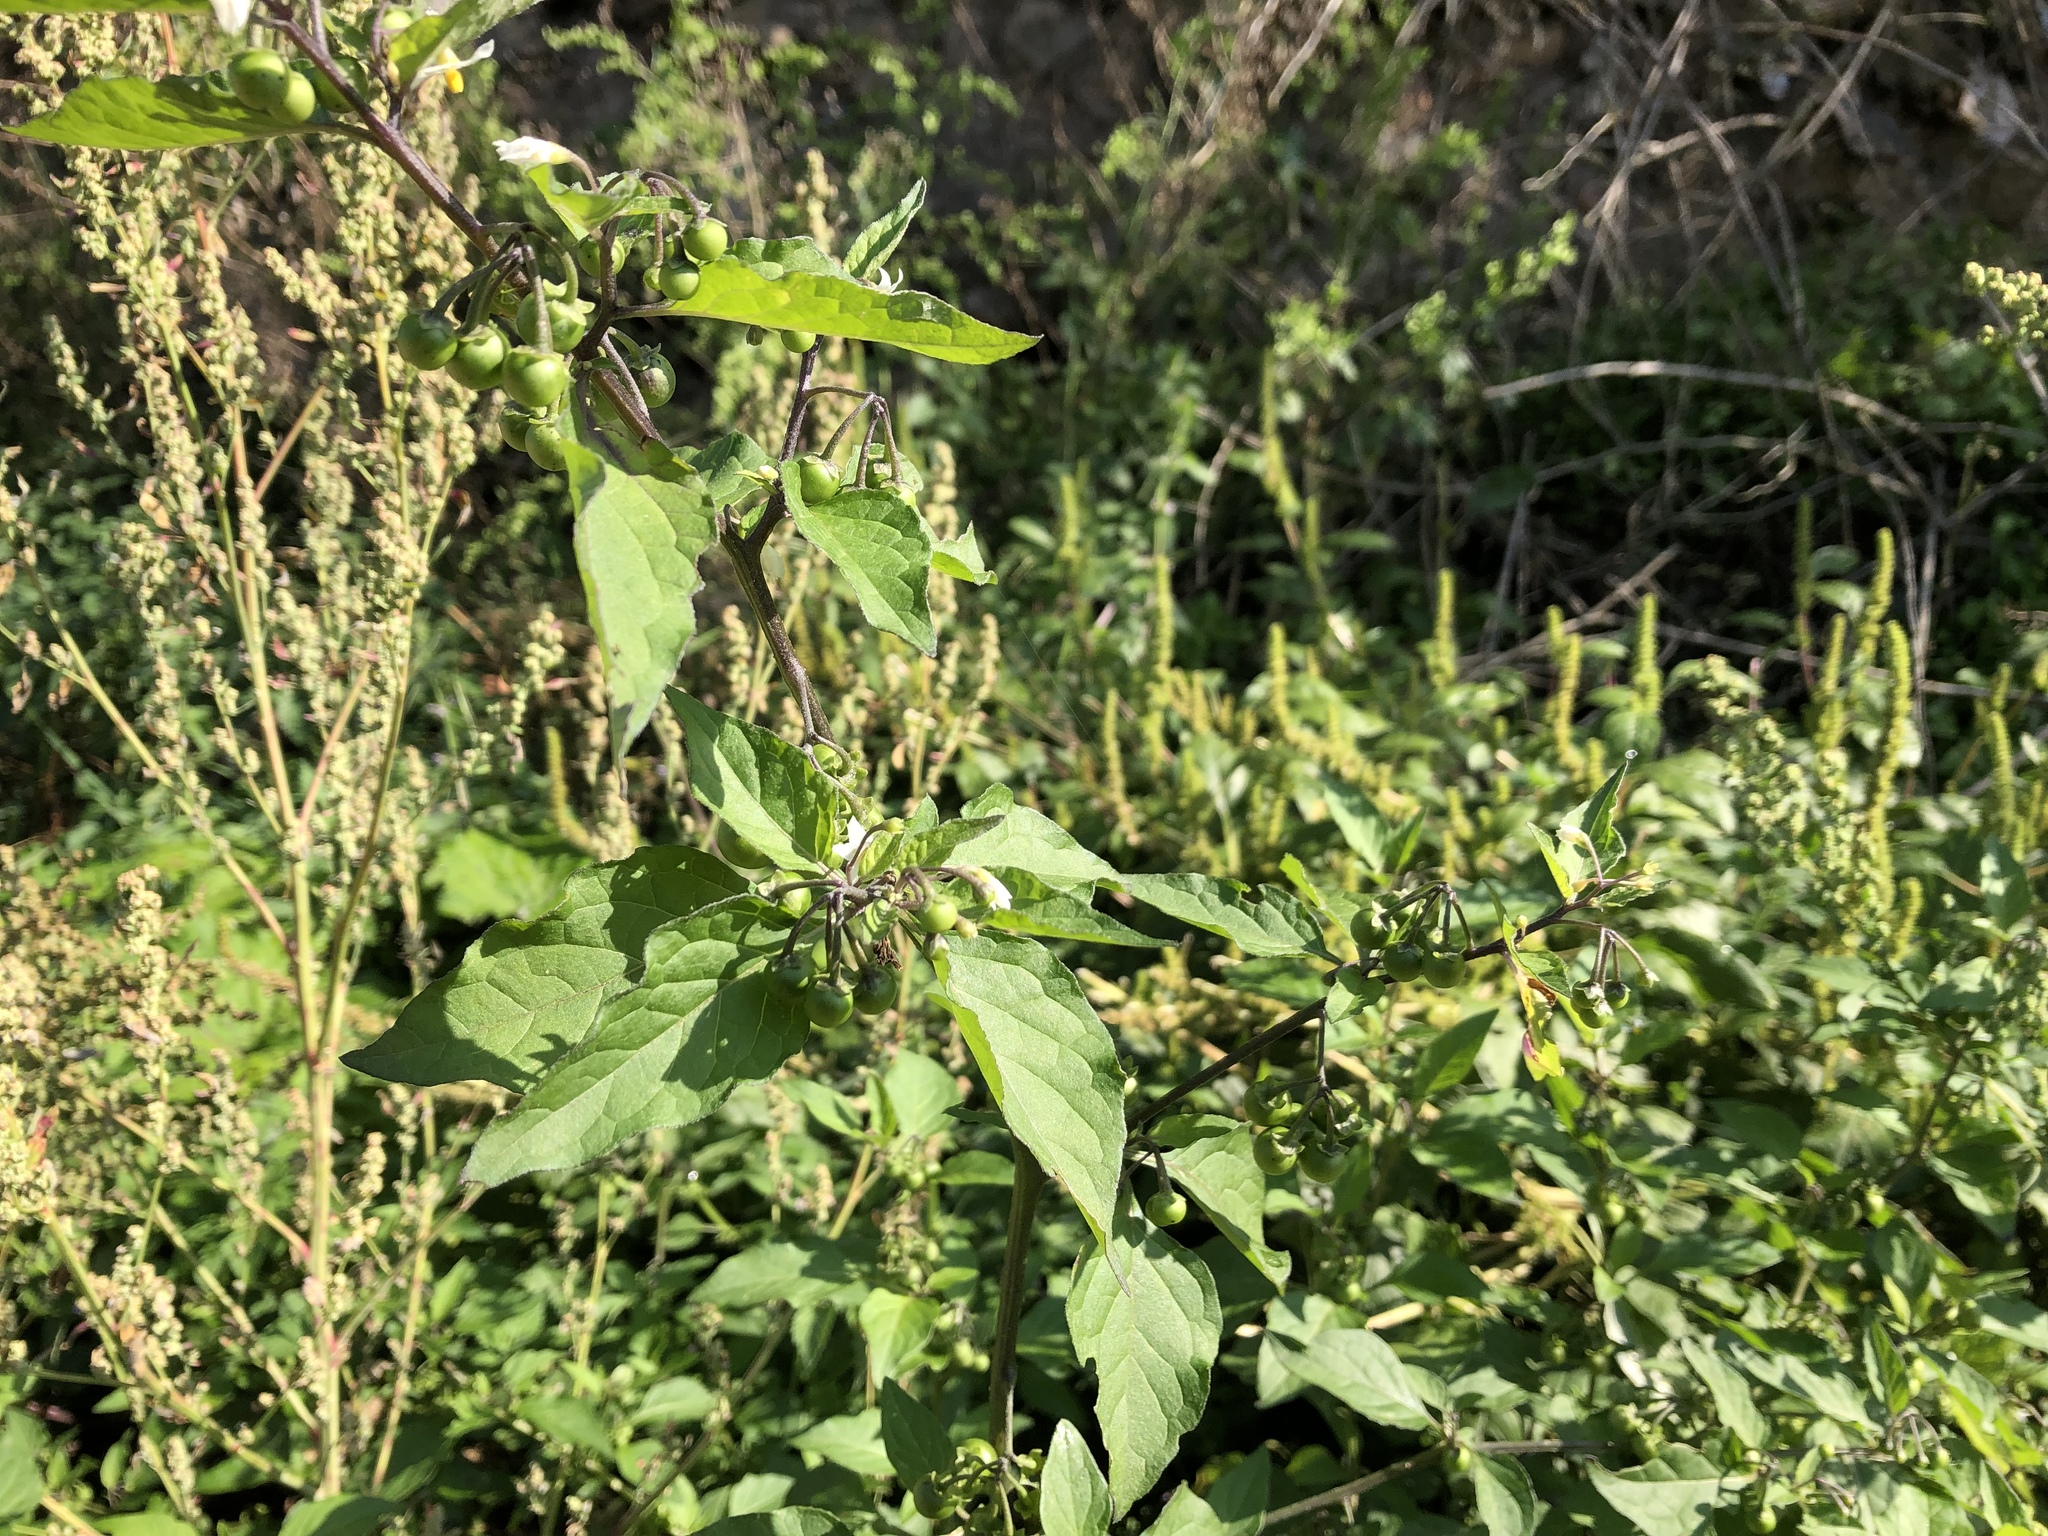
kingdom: Plantae
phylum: Tracheophyta
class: Magnoliopsida
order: Solanales
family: Solanaceae
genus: Solanum
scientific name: Solanum nigrum
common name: Black nightshade
